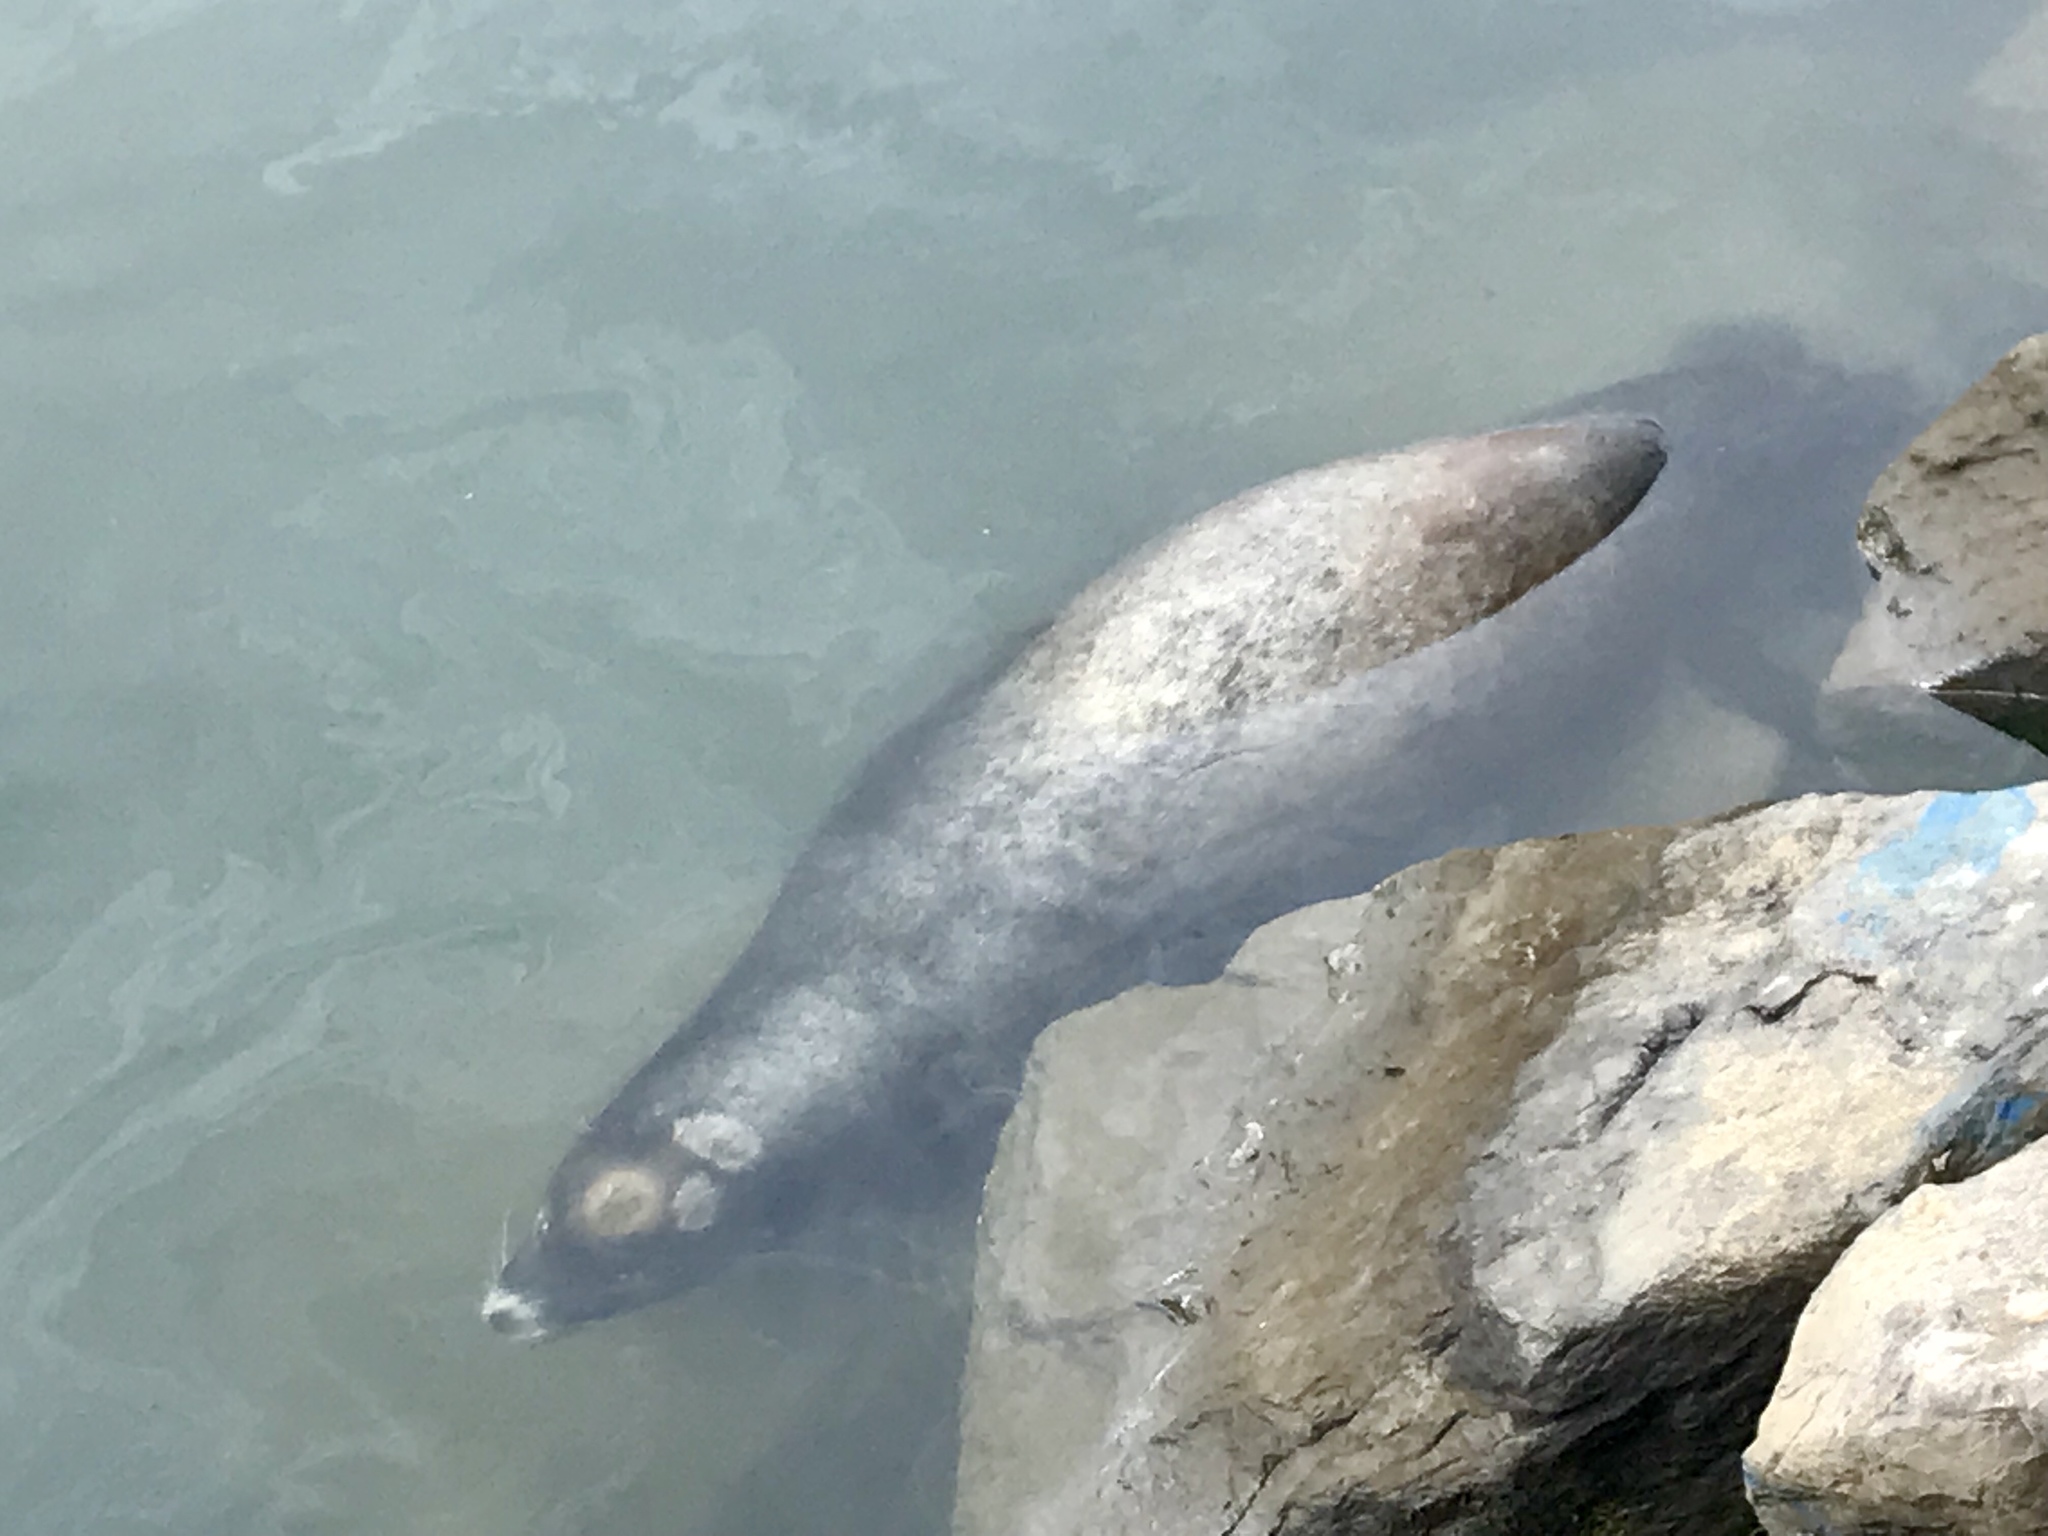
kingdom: Animalia
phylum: Chordata
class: Mammalia
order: Carnivora
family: Otariidae
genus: Zalophus
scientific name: Zalophus californianus
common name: California sea lion
